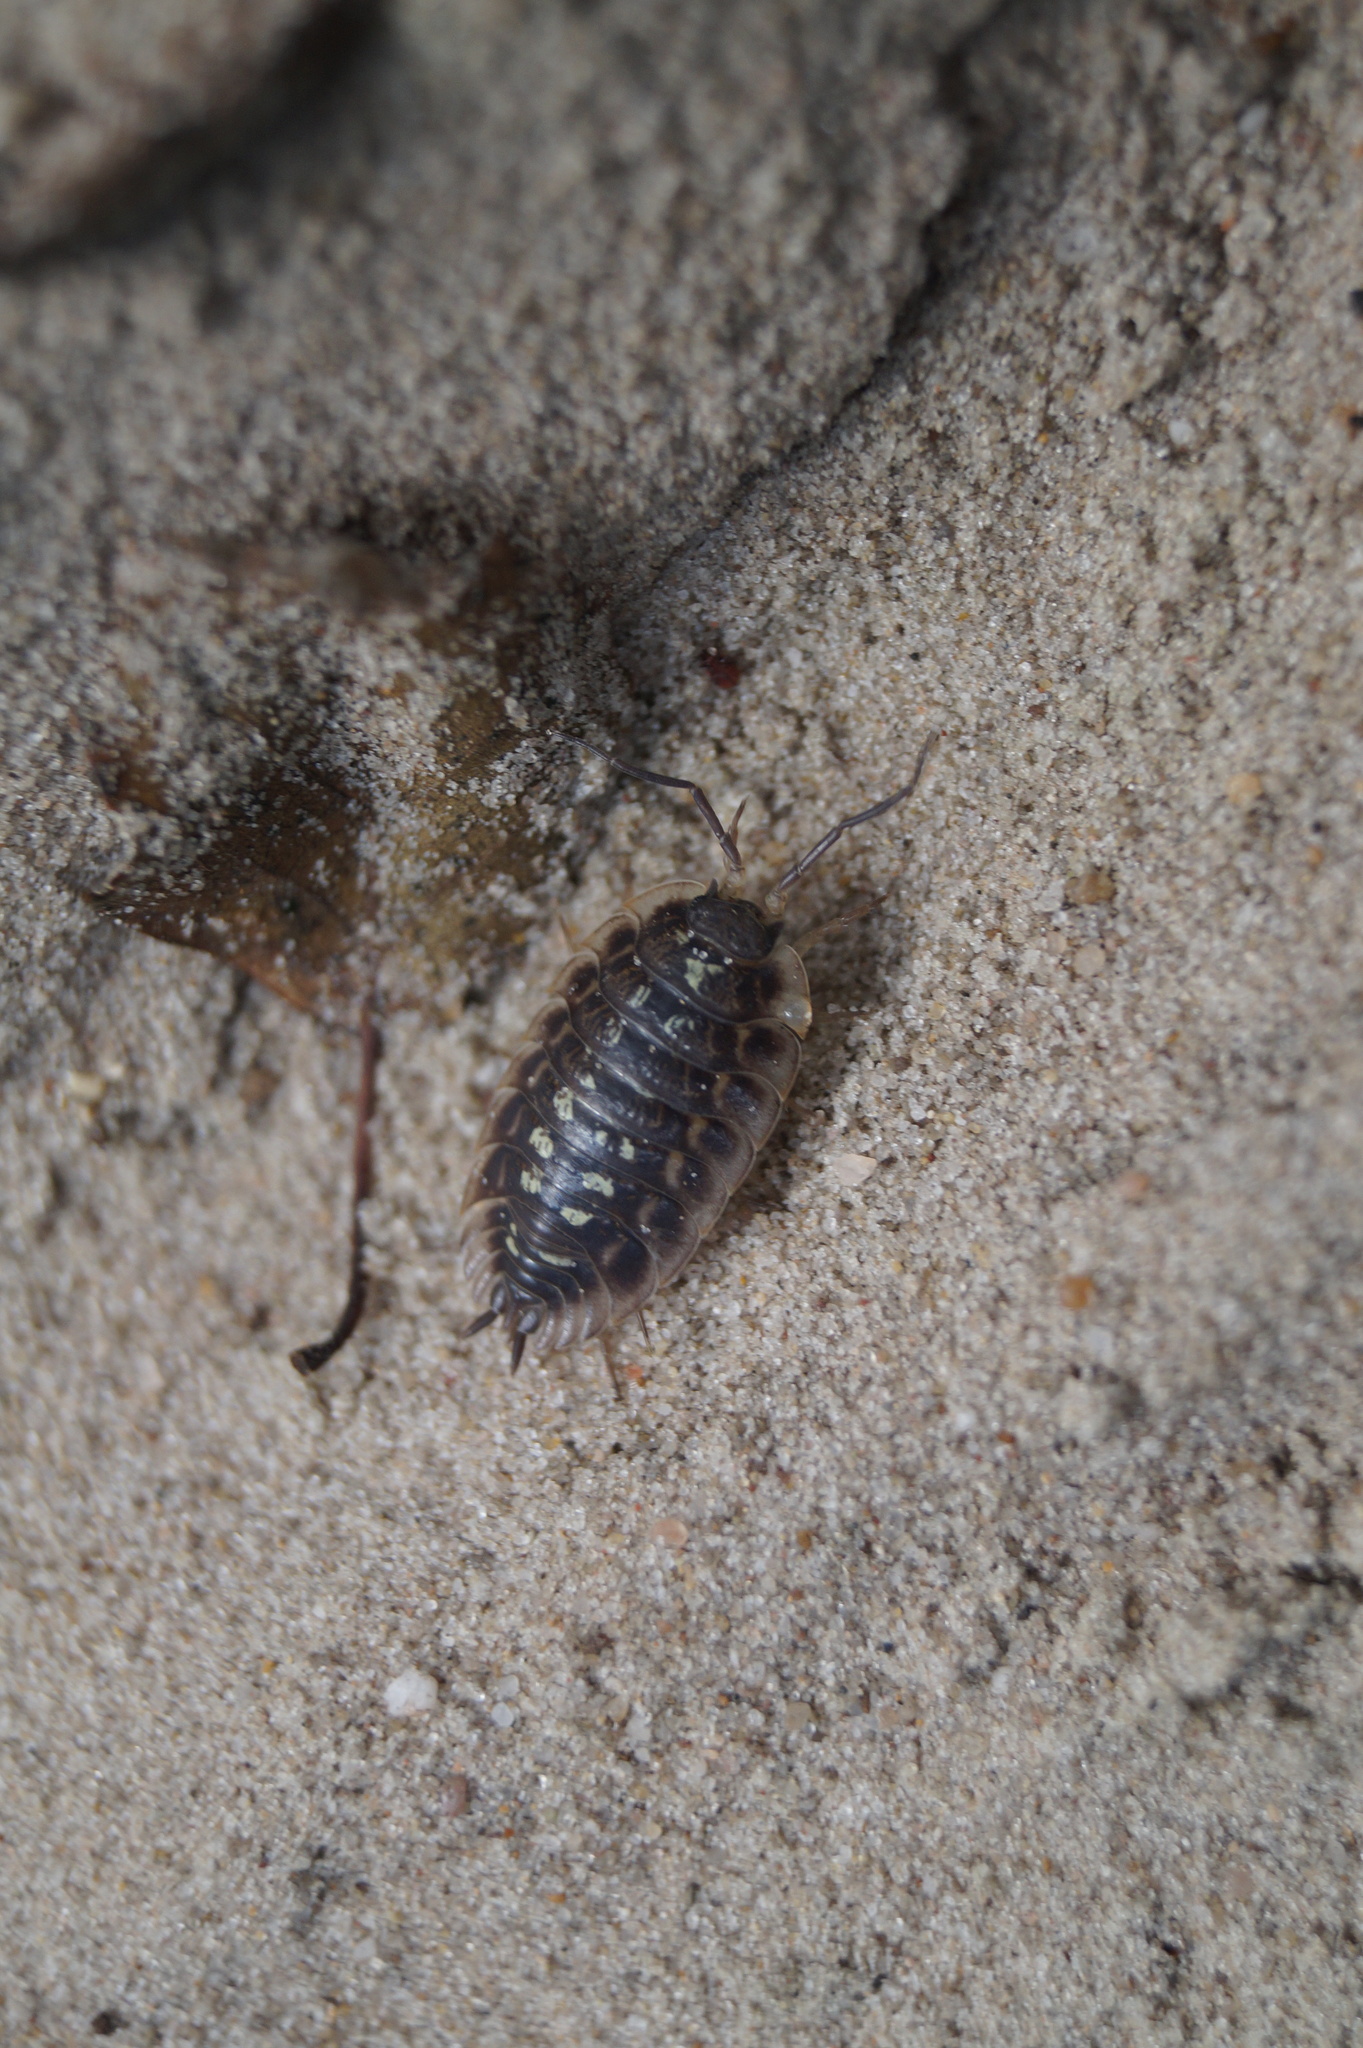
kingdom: Animalia
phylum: Arthropoda
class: Malacostraca
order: Isopoda
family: Oniscidae
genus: Oniscus
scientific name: Oniscus asellus
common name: Common shiny woodlouse
